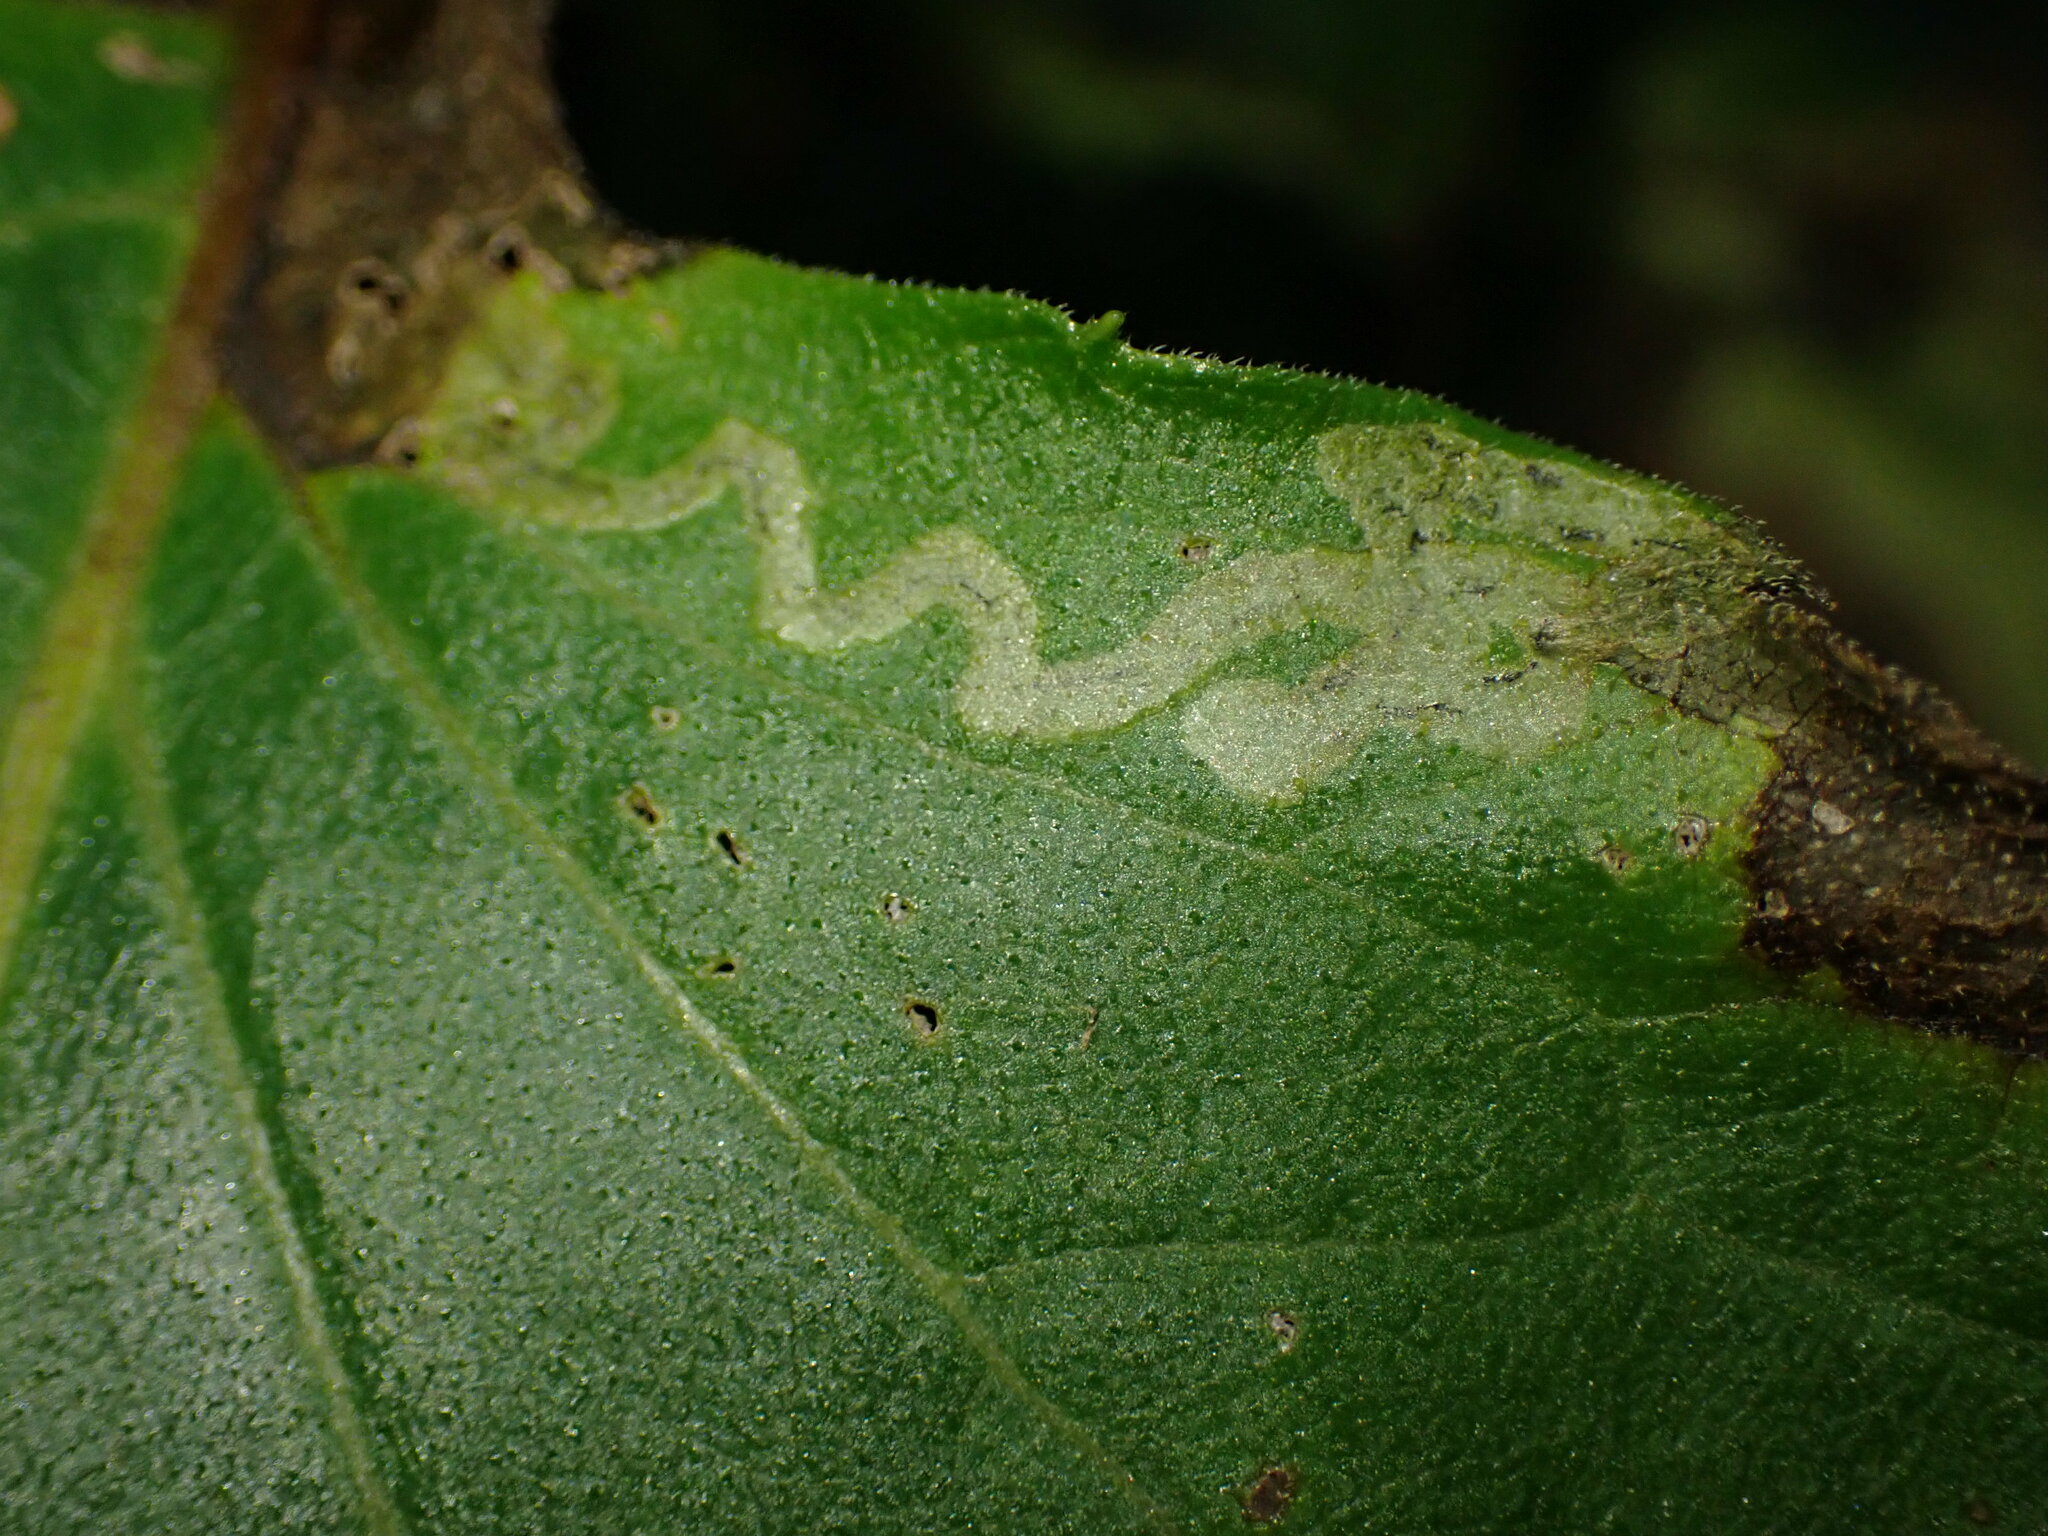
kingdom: Animalia
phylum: Arthropoda
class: Insecta
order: Diptera
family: Agromyzidae
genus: Liriomyza
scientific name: Liriomyza ivorcutleri
